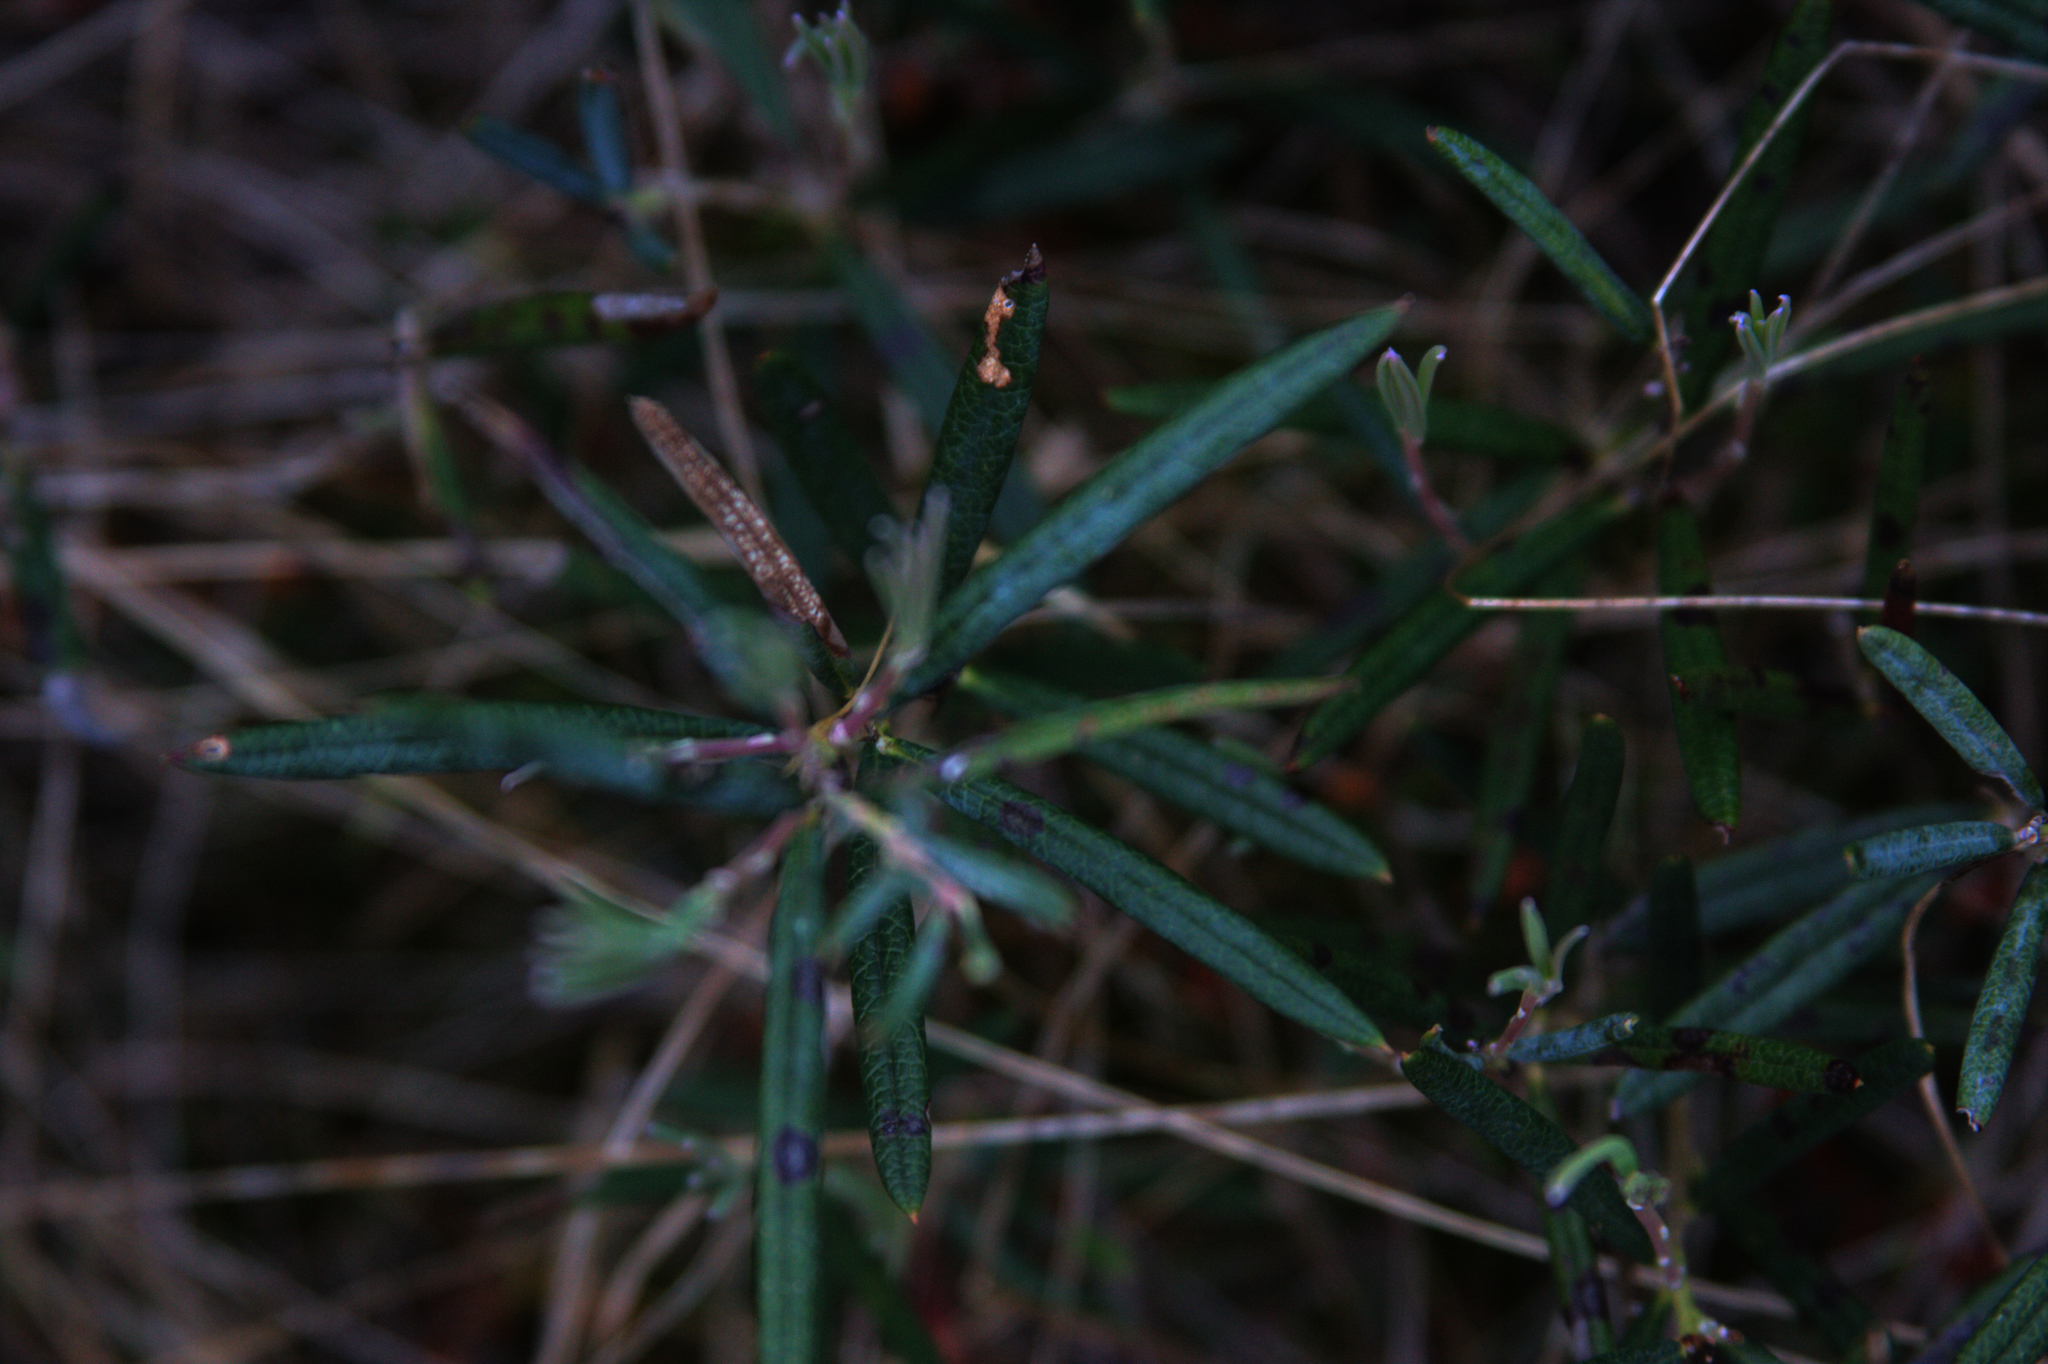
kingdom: Plantae
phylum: Tracheophyta
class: Magnoliopsida
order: Ericales
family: Ericaceae
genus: Andromeda
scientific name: Andromeda polifolia
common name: Bog-rosemary
